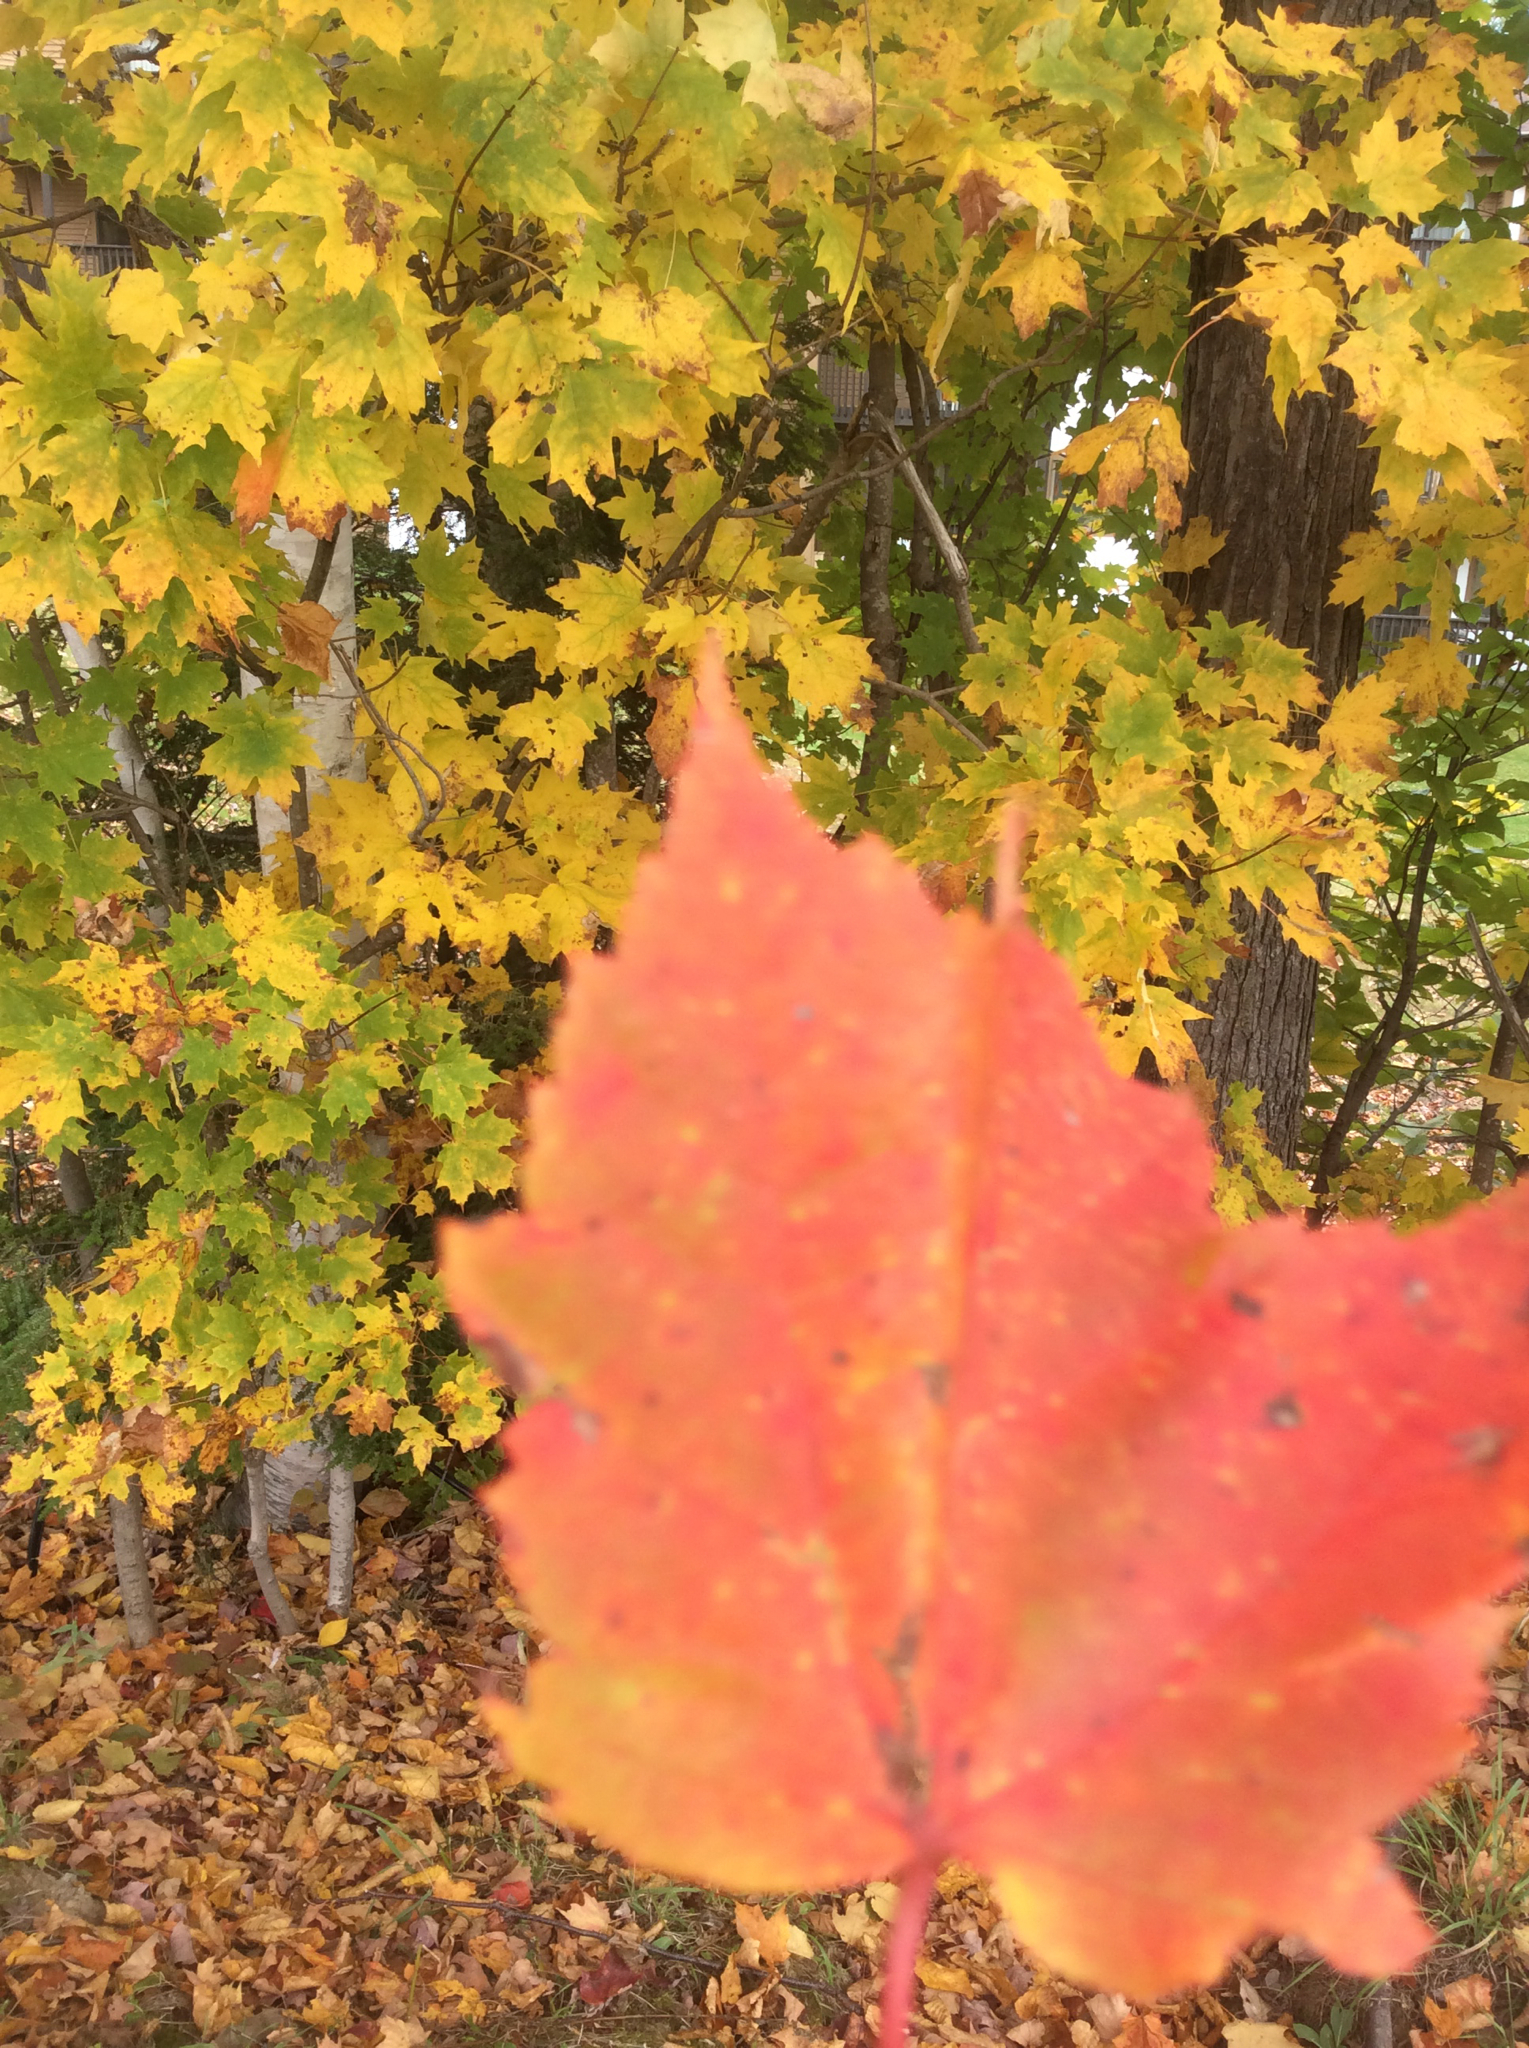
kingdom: Plantae
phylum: Tracheophyta
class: Magnoliopsida
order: Sapindales
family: Sapindaceae
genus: Acer
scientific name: Acer rubrum
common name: Red maple
